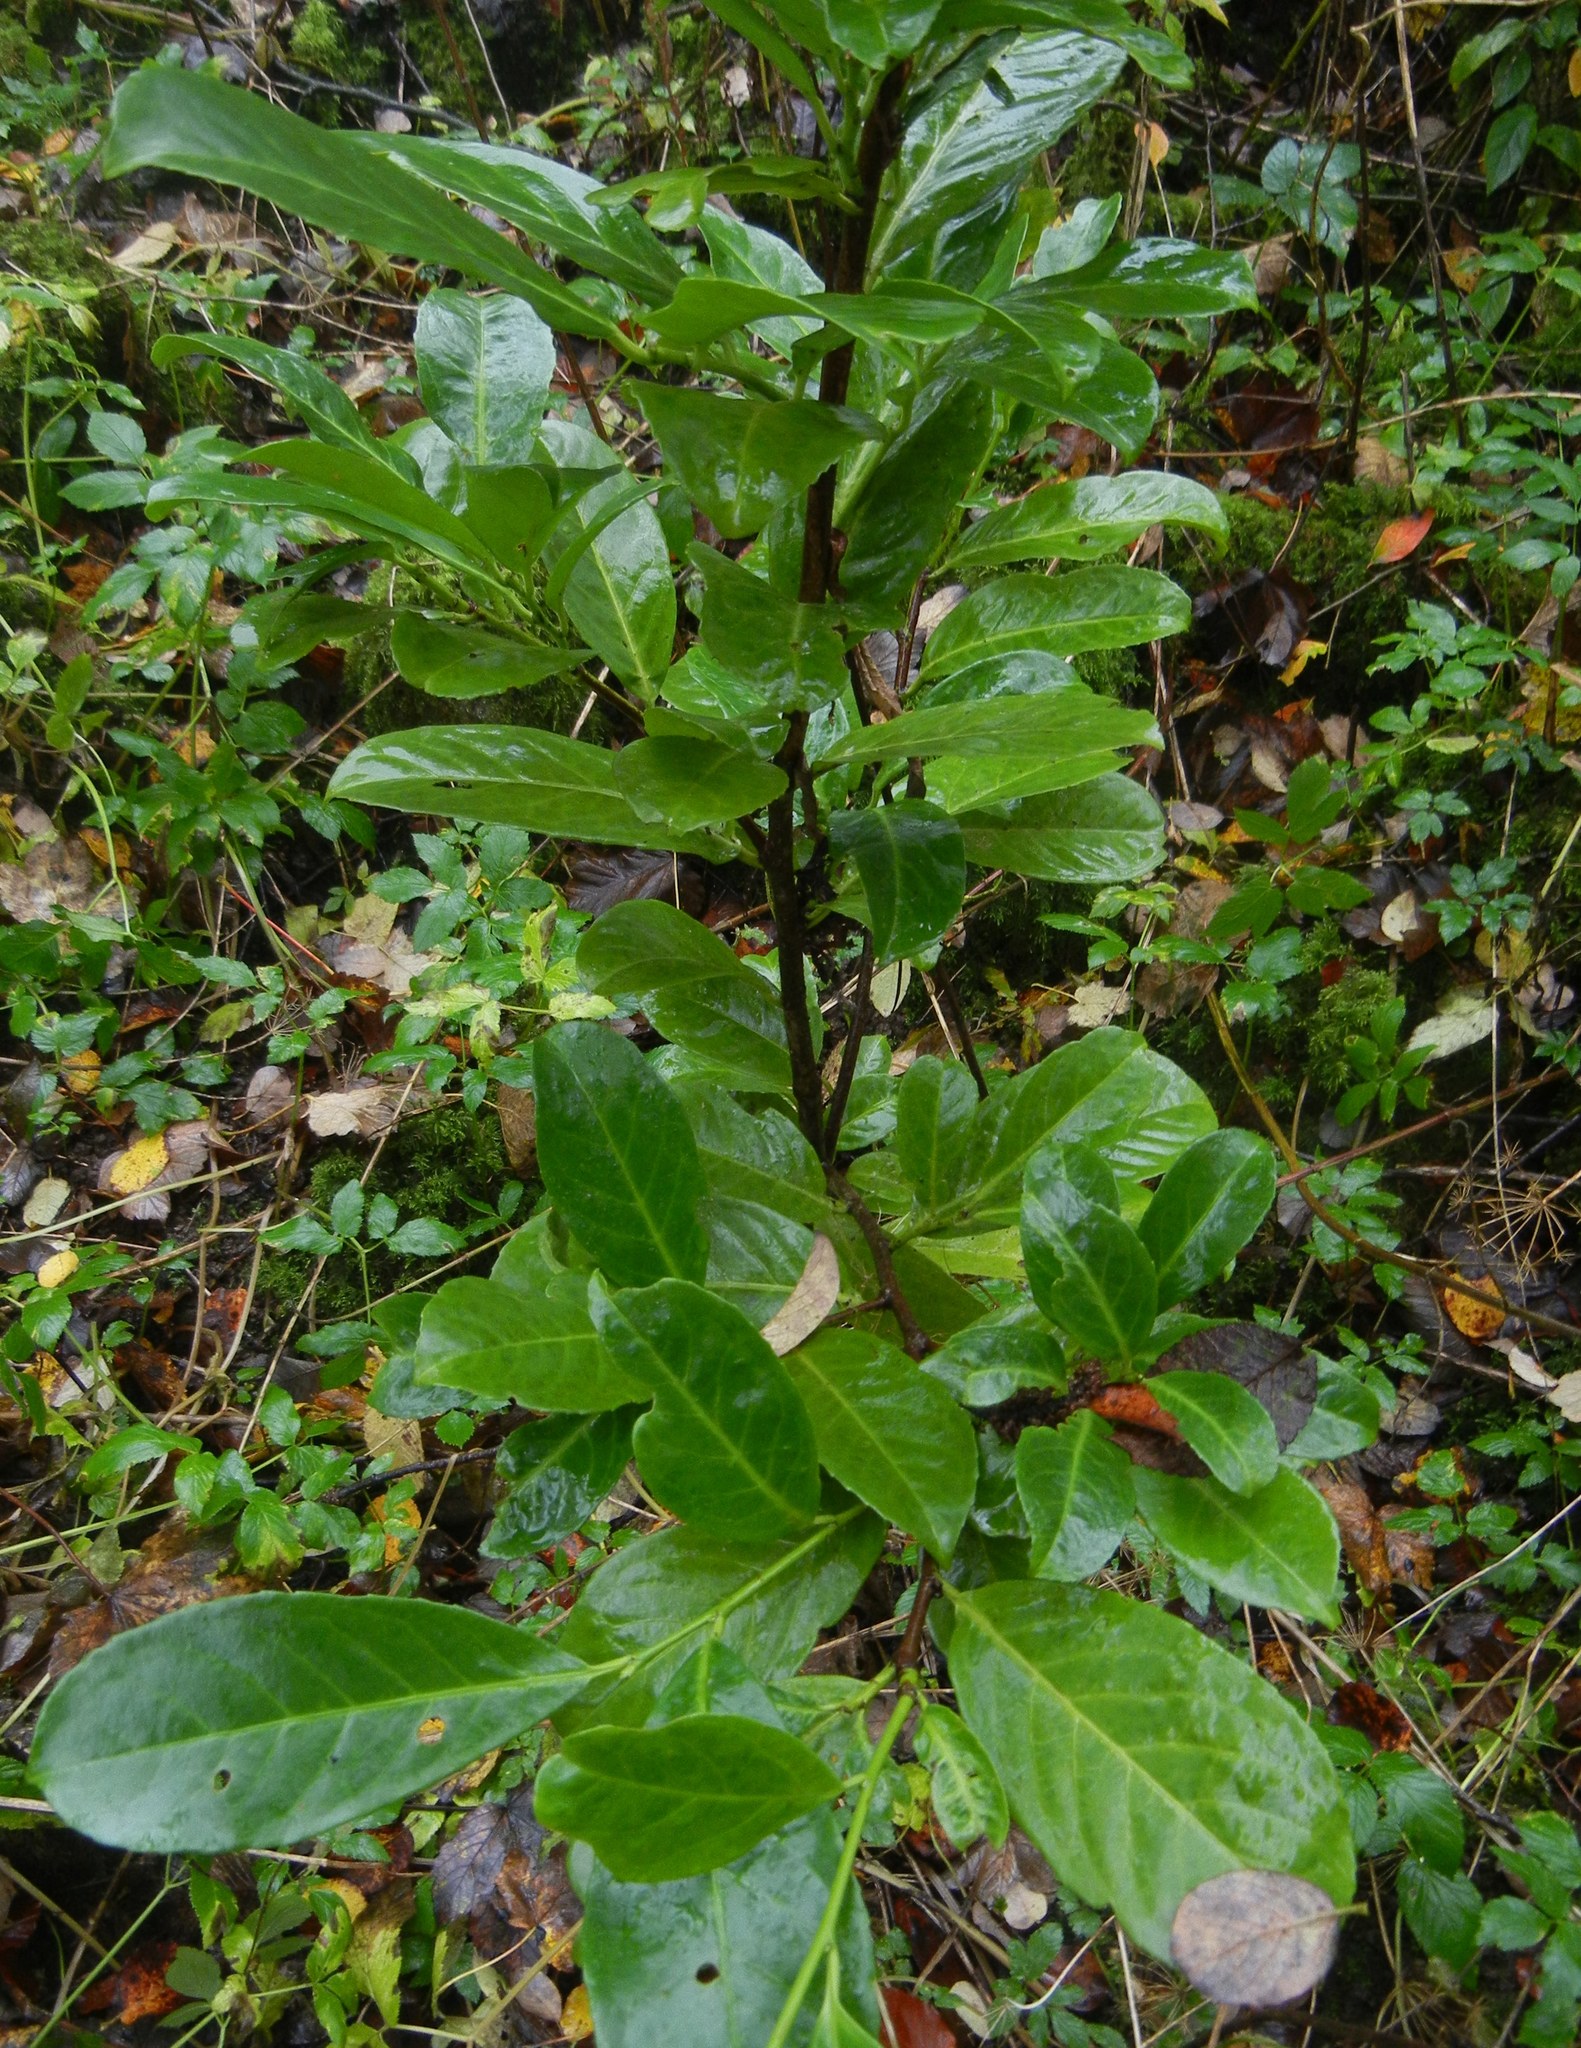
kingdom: Plantae
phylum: Tracheophyta
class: Magnoliopsida
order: Rosales
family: Rosaceae
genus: Prunus
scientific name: Prunus laurocerasus
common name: Cherry laurel
